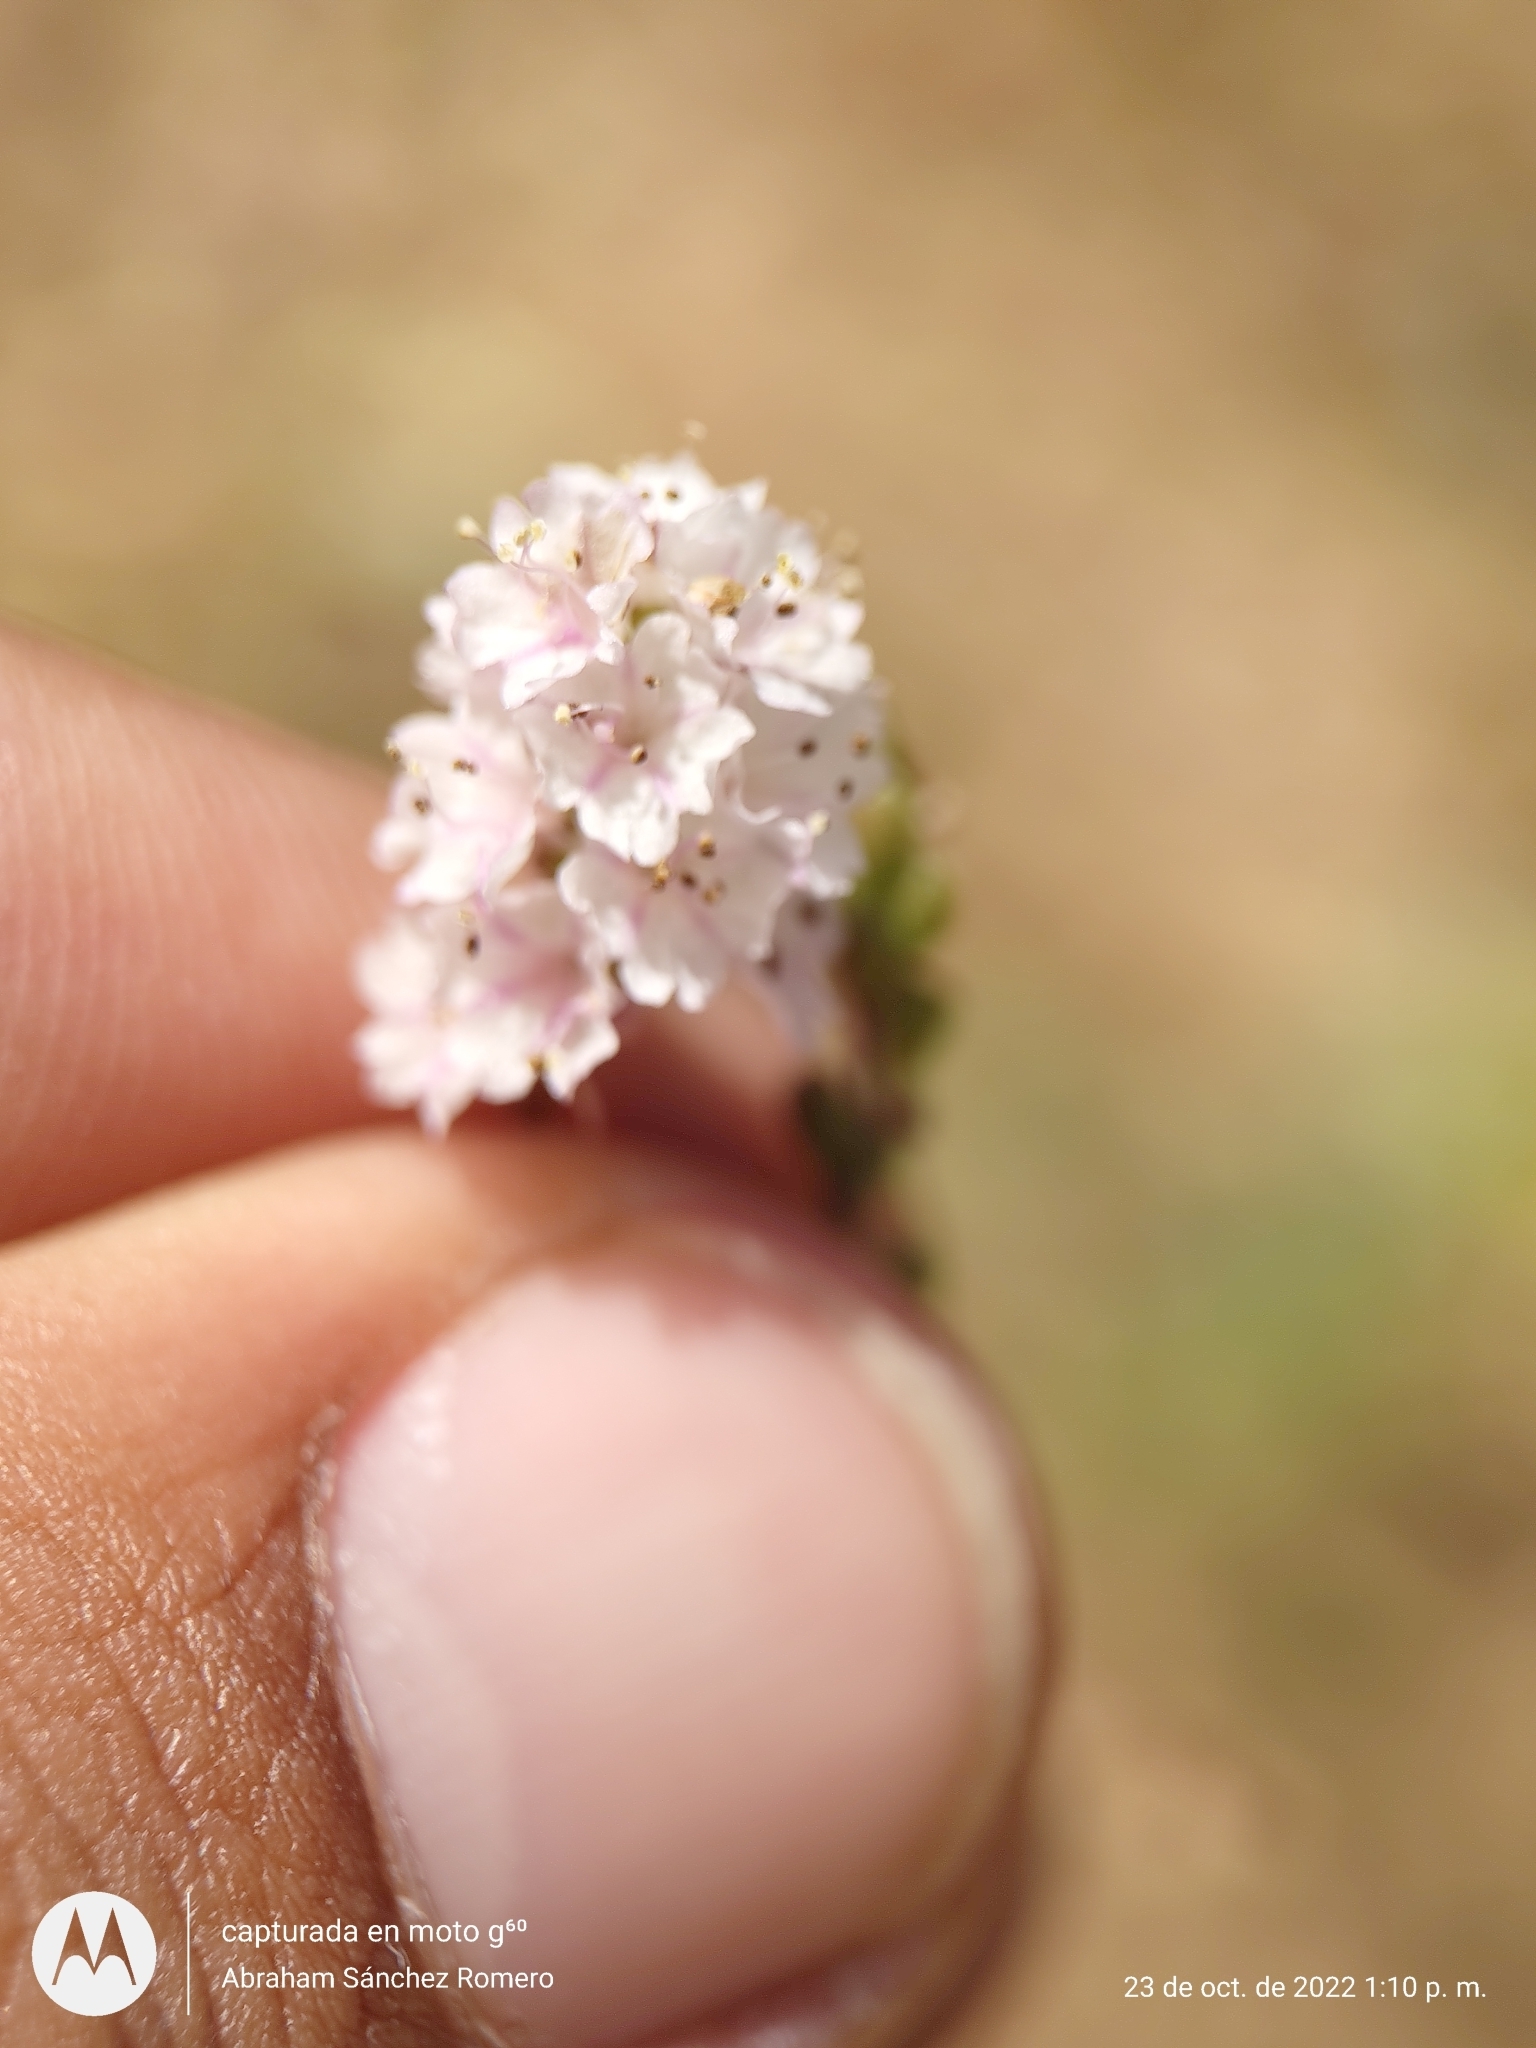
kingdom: Plantae
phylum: Tracheophyta
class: Magnoliopsida
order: Caryophyllales
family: Nyctaginaceae
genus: Boerhavia
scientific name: Boerhavia xantii
